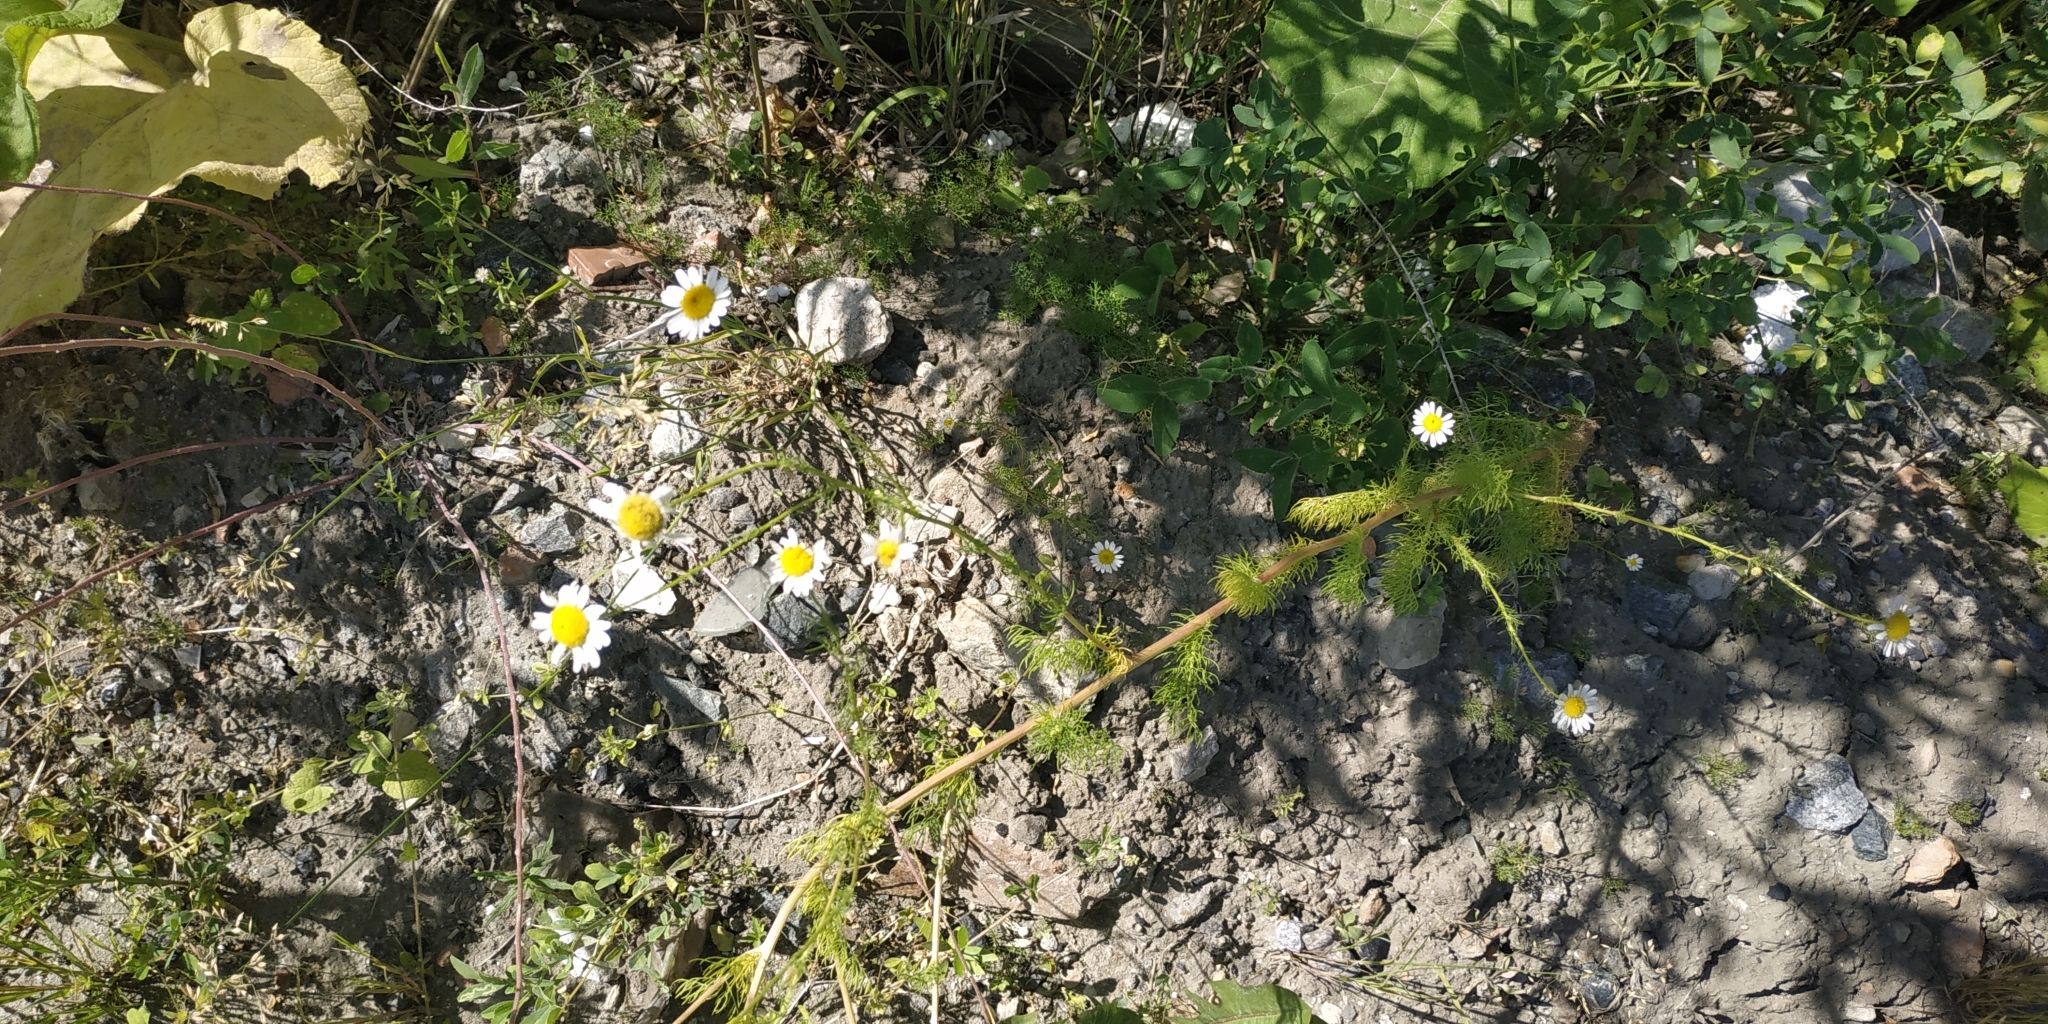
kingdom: Plantae
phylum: Tracheophyta
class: Magnoliopsida
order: Asterales
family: Asteraceae
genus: Tripleurospermum
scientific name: Tripleurospermum inodorum
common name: Scentless mayweed
